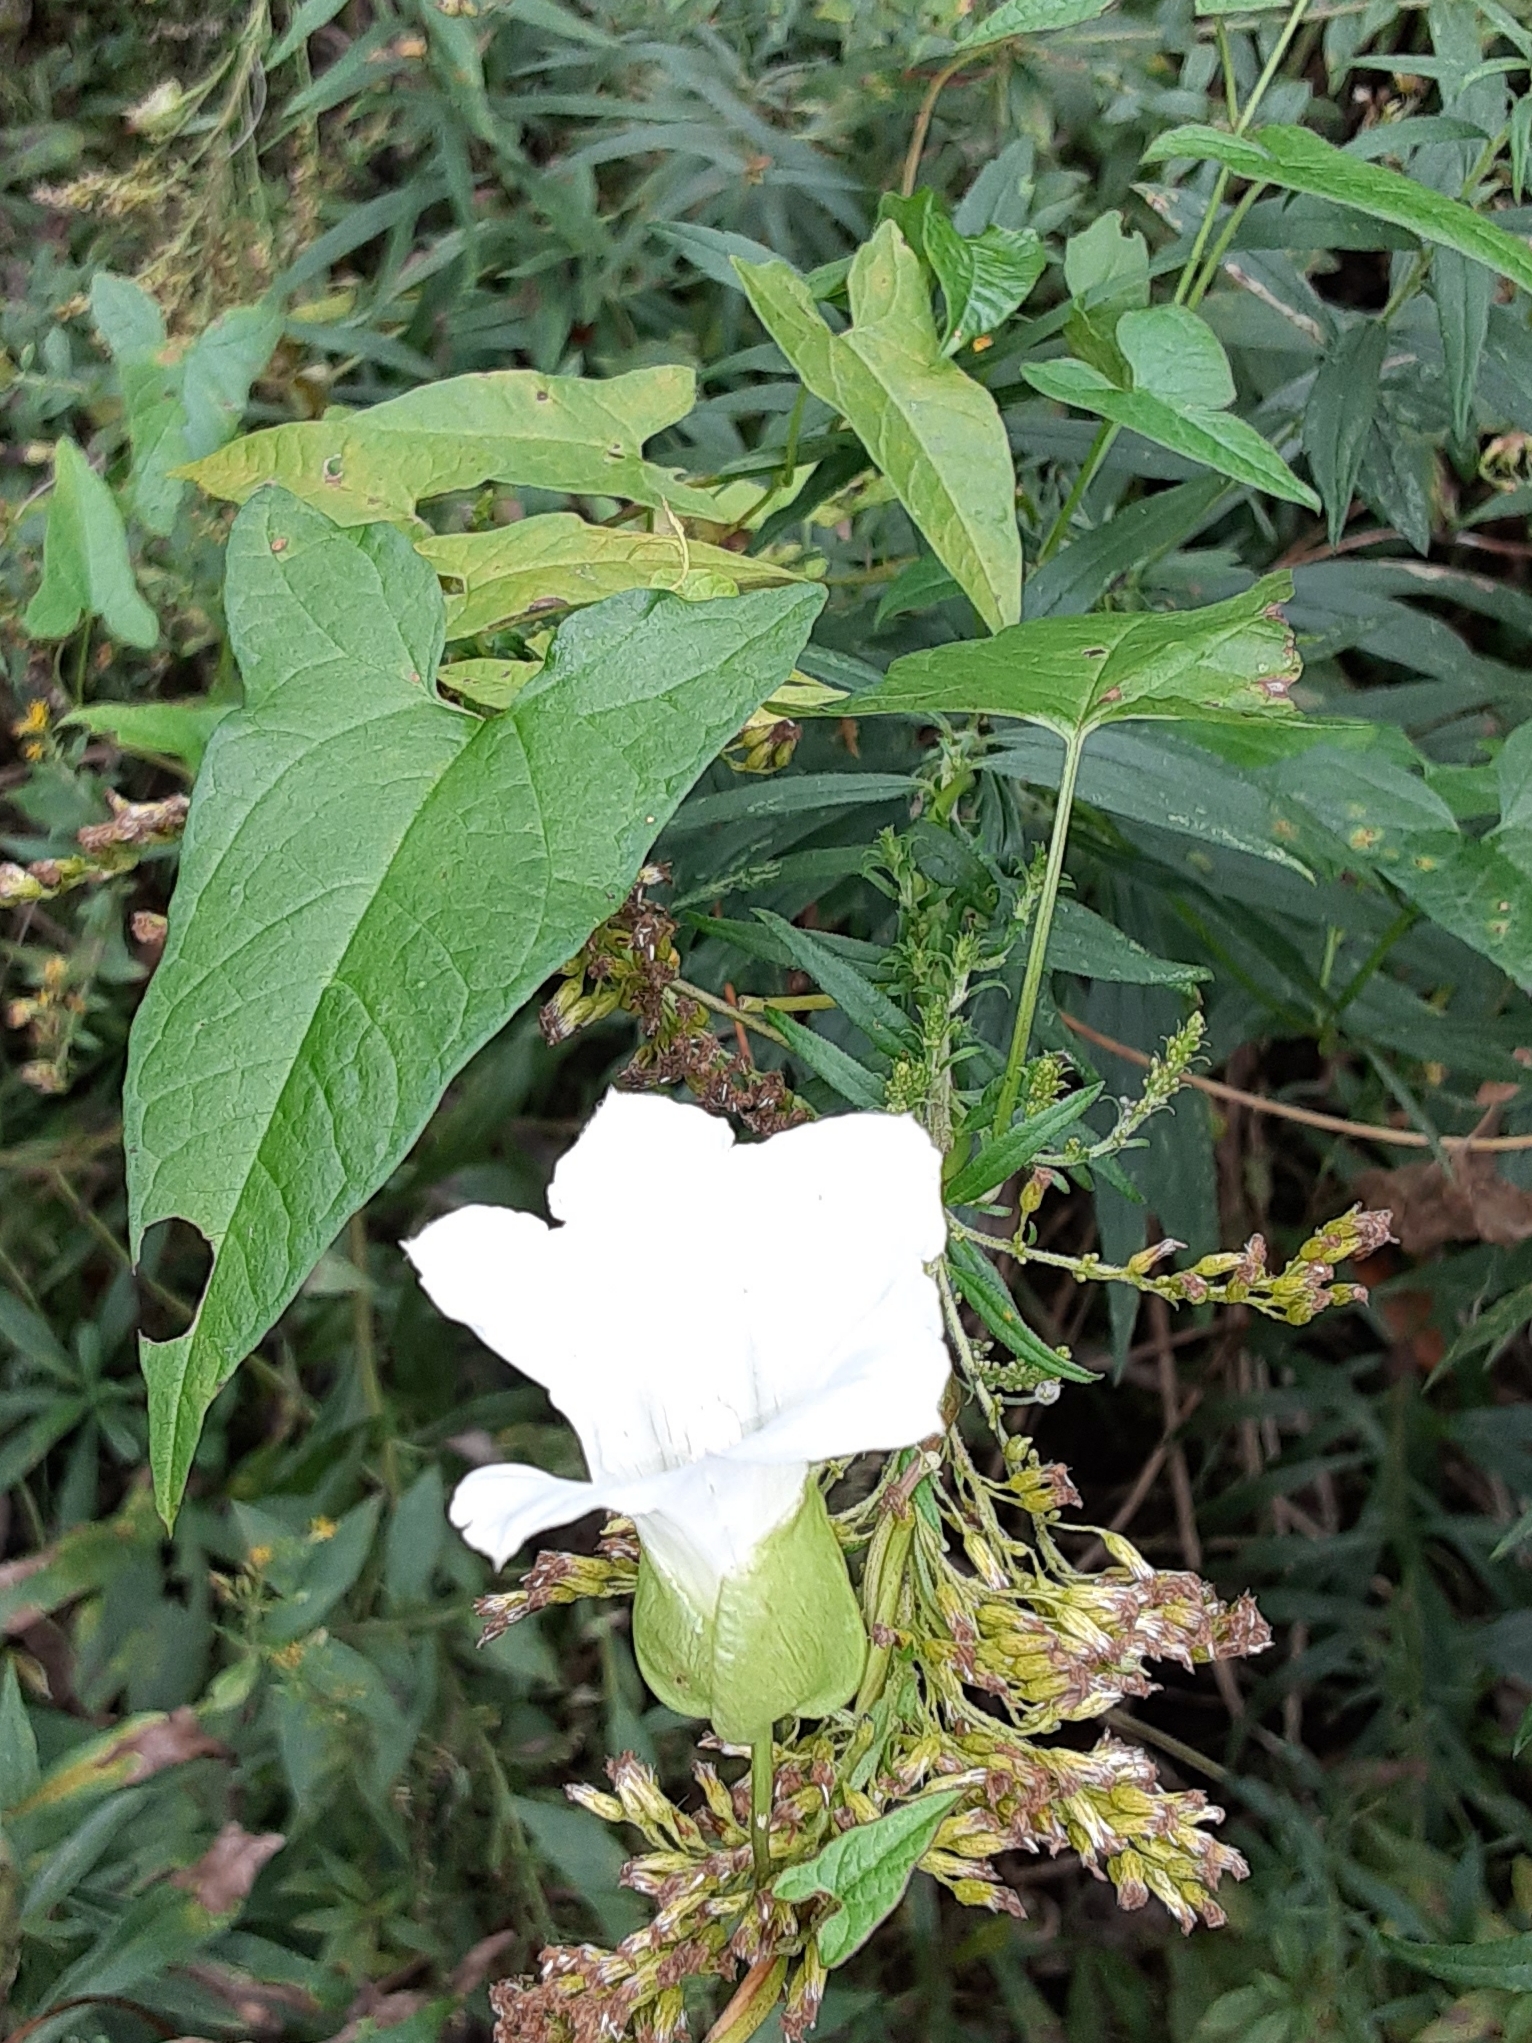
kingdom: Plantae
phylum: Tracheophyta
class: Magnoliopsida
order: Solanales
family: Convolvulaceae
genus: Calystegia
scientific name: Calystegia sepium
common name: Hedge bindweed
